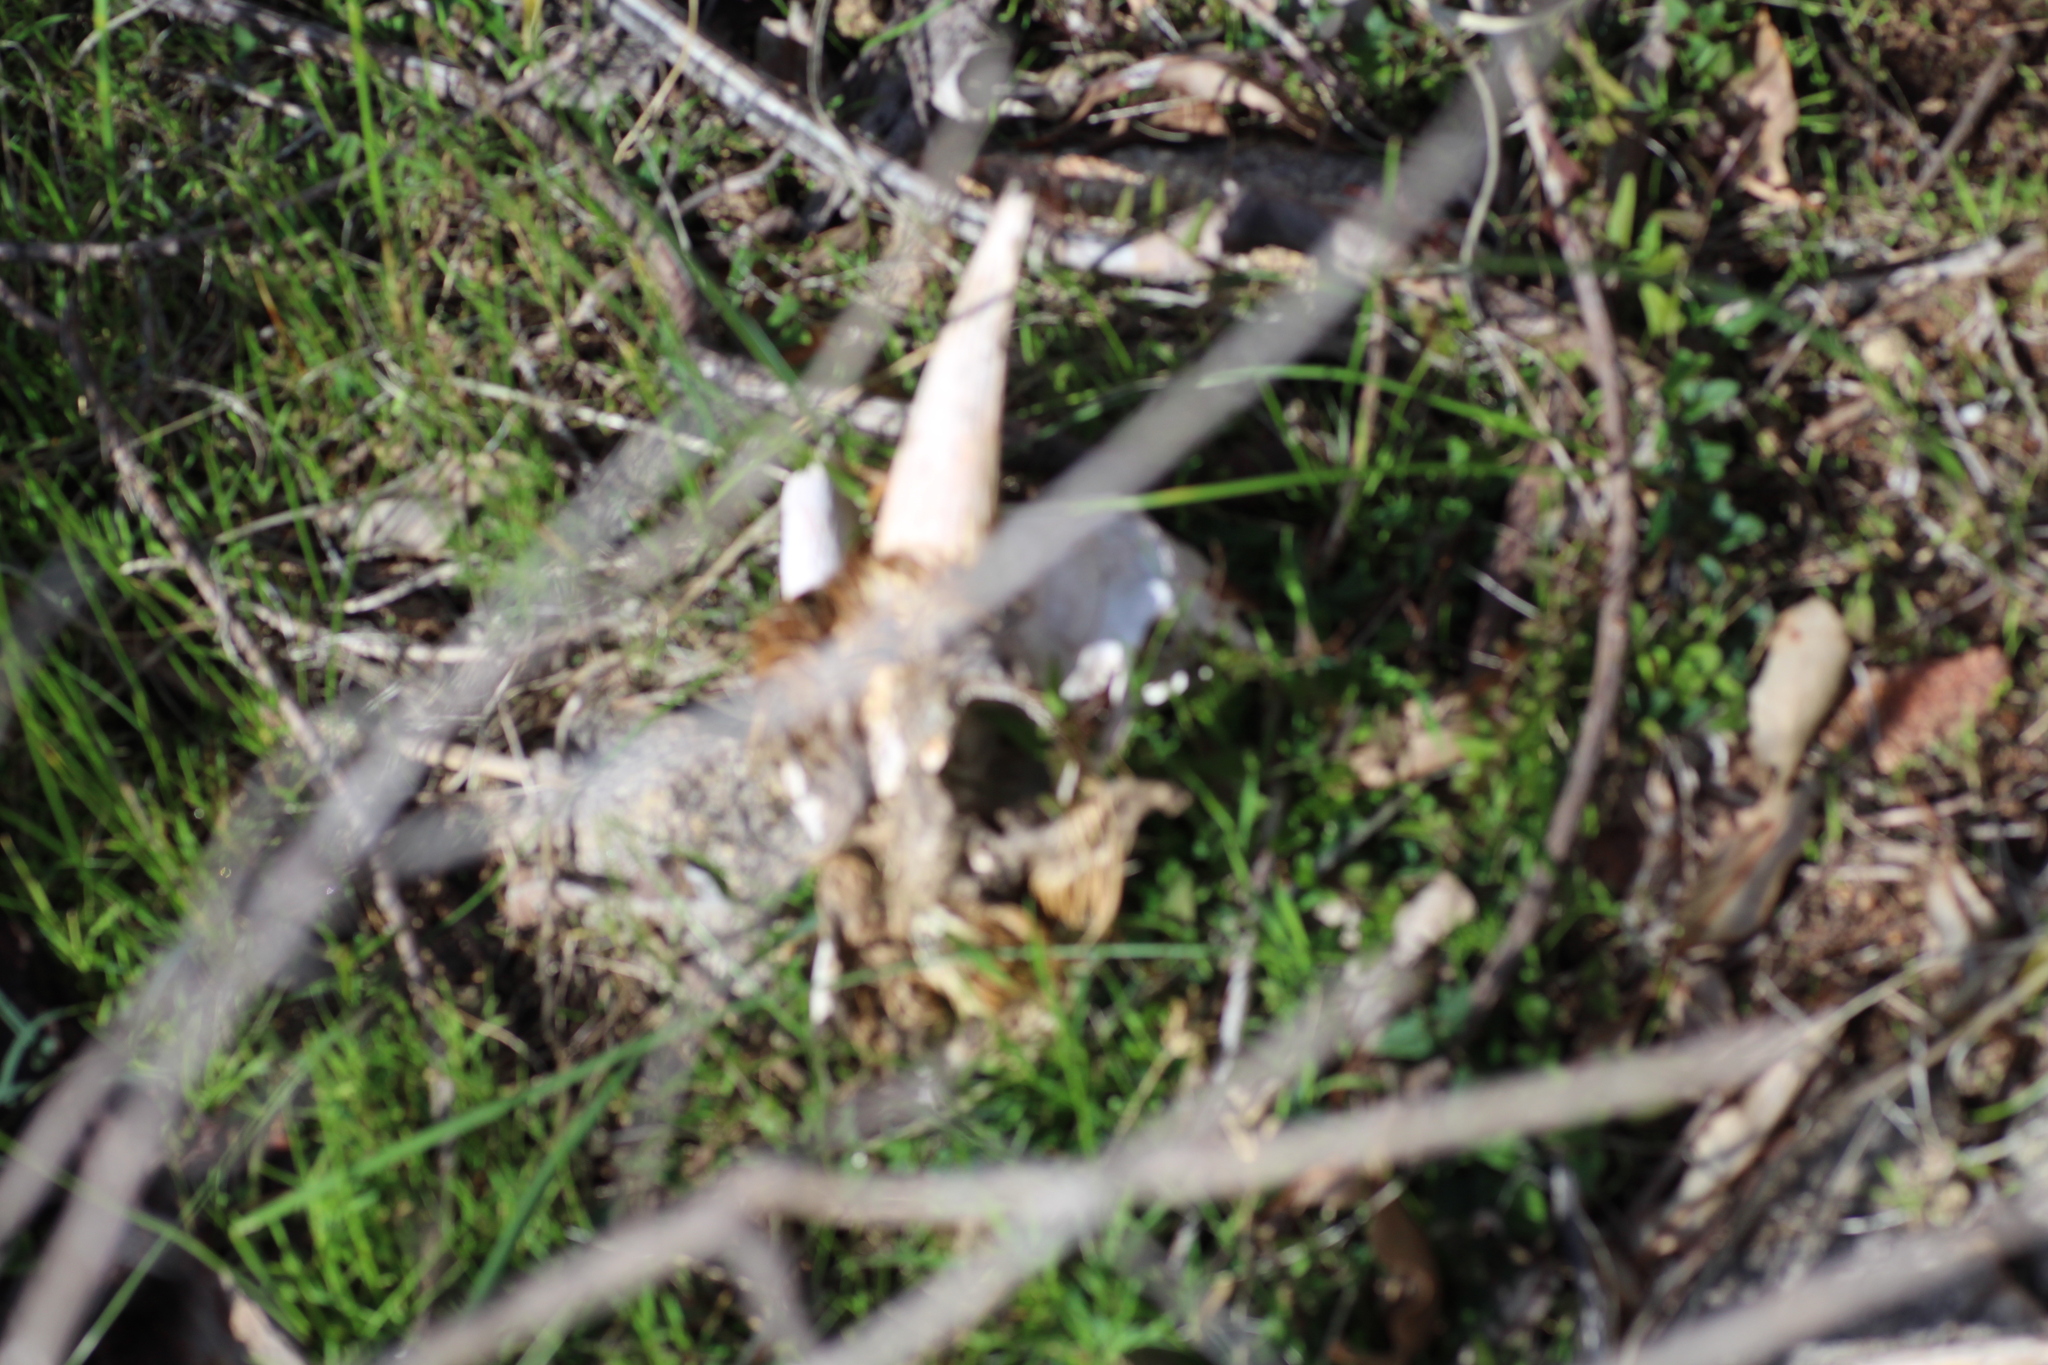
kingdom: Animalia
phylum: Chordata
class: Mammalia
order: Artiodactyla
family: Bovidae
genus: Capra
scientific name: Capra hircus
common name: Domestic goat
